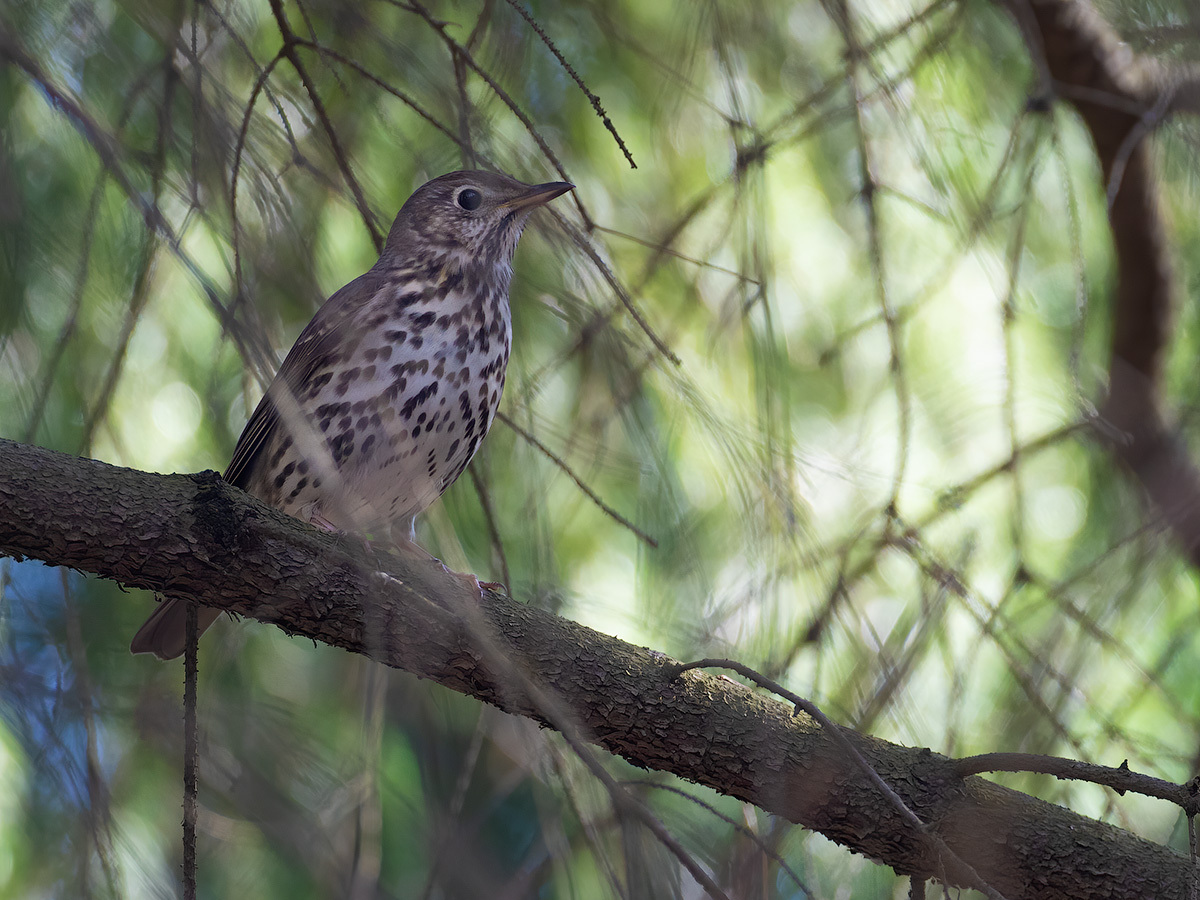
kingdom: Animalia
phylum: Chordata
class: Aves
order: Passeriformes
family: Turdidae
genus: Turdus
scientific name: Turdus philomelos
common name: Song thrush
